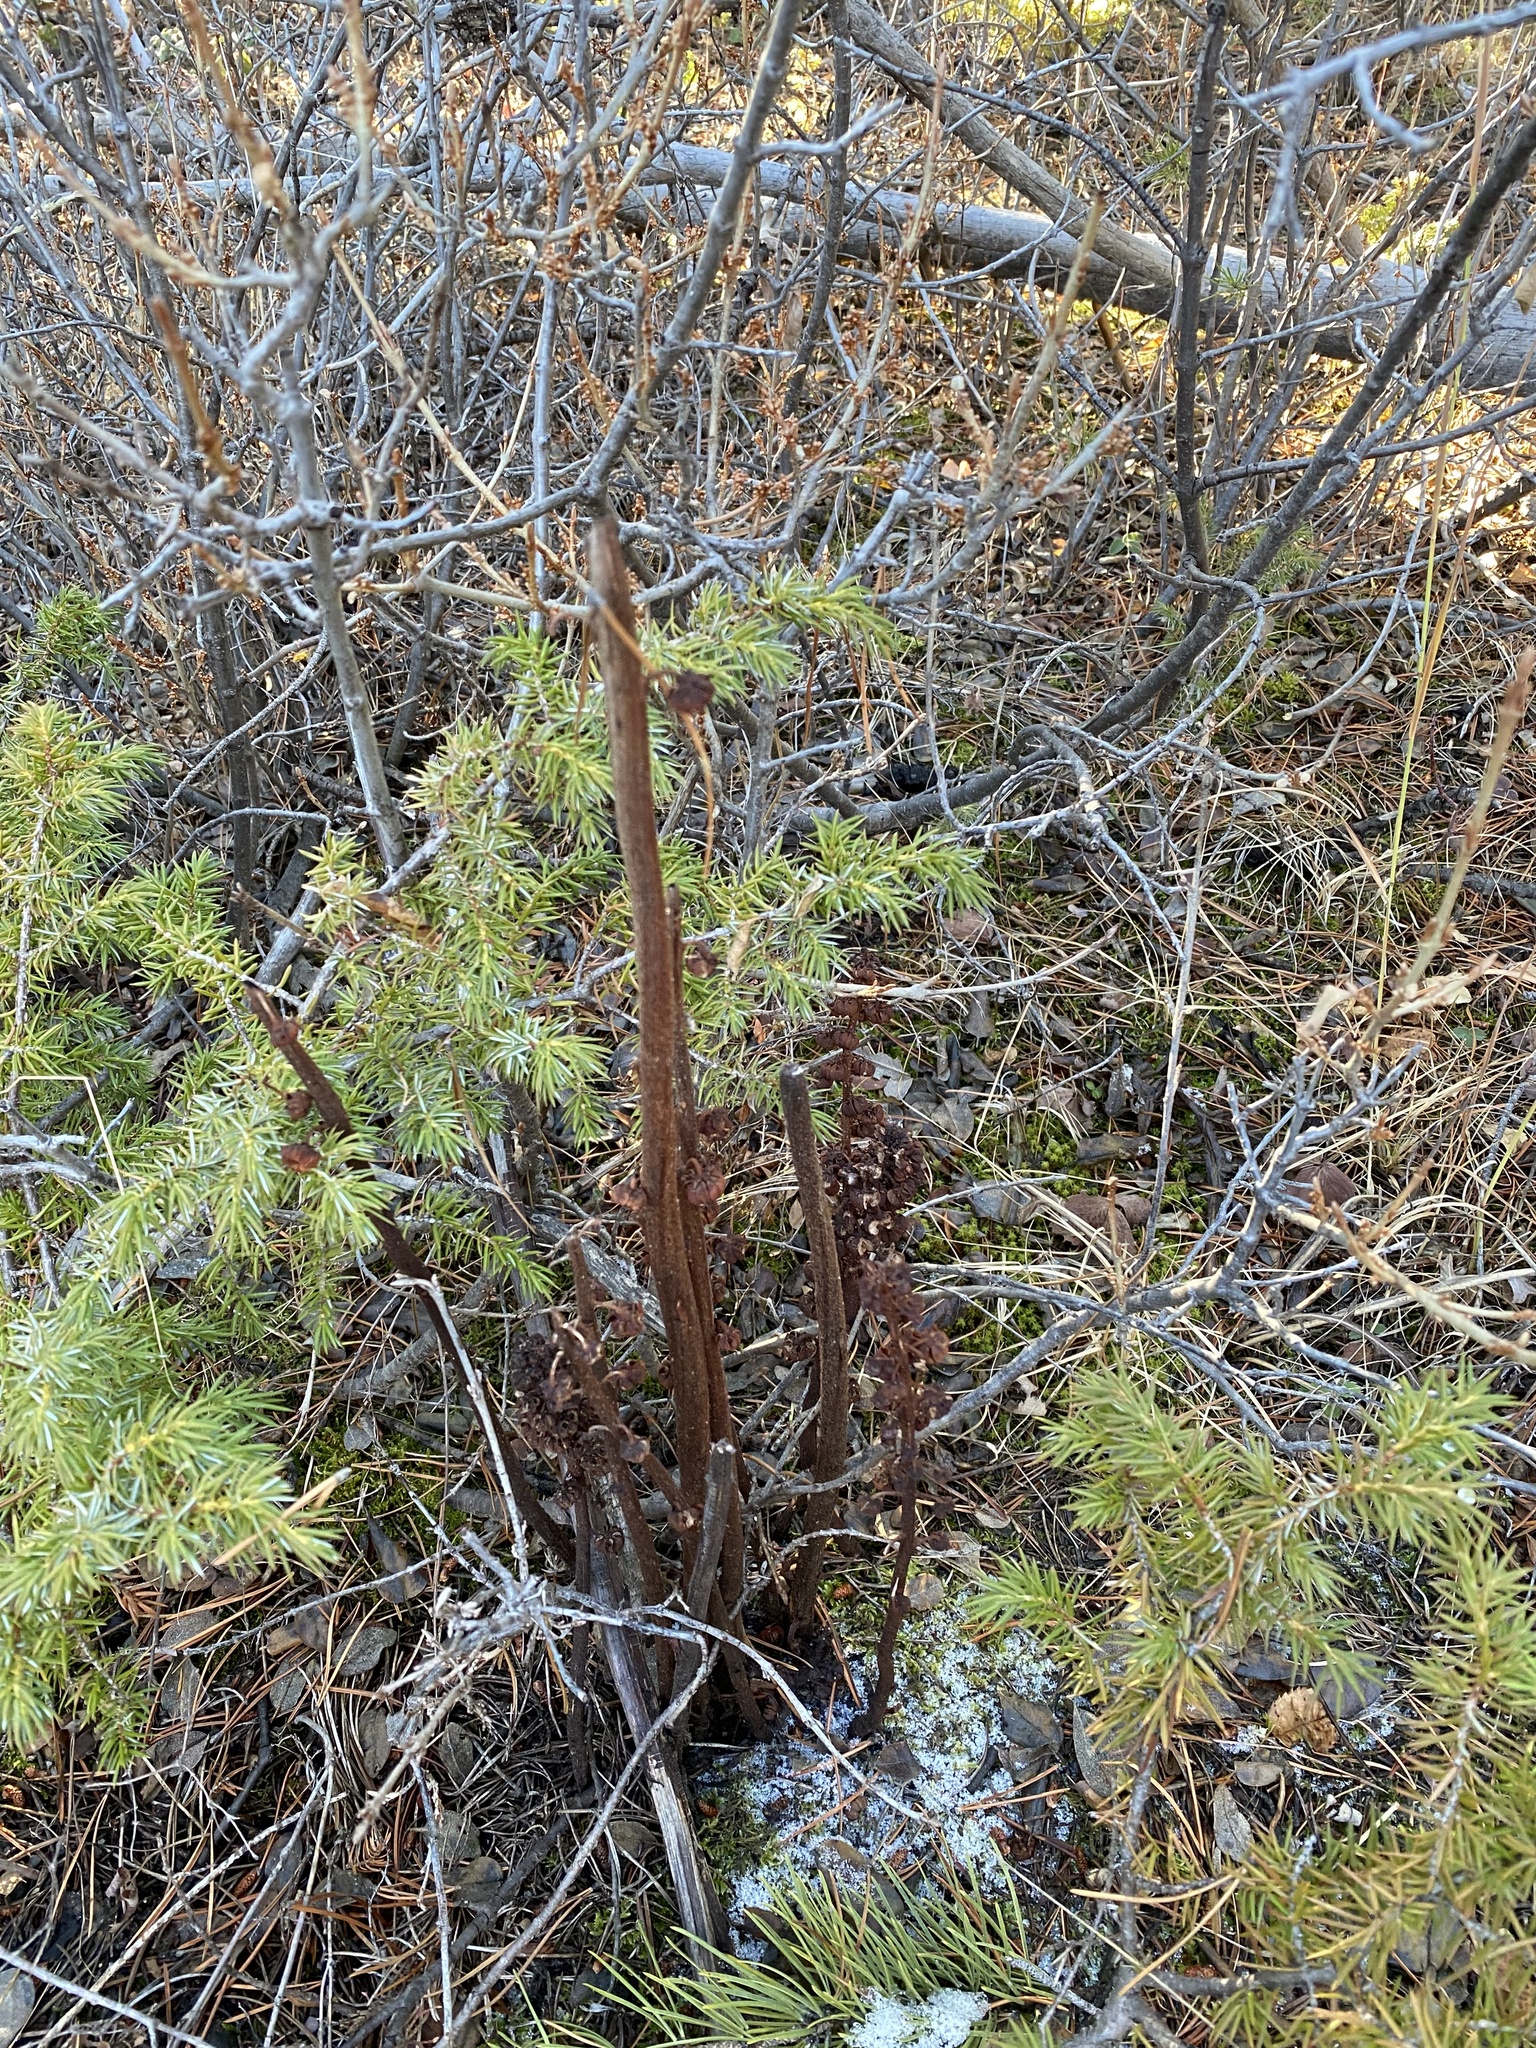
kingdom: Plantae
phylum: Tracheophyta
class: Magnoliopsida
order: Ericales
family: Ericaceae
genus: Pterospora
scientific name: Pterospora andromedea
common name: Giant bird's-nest
